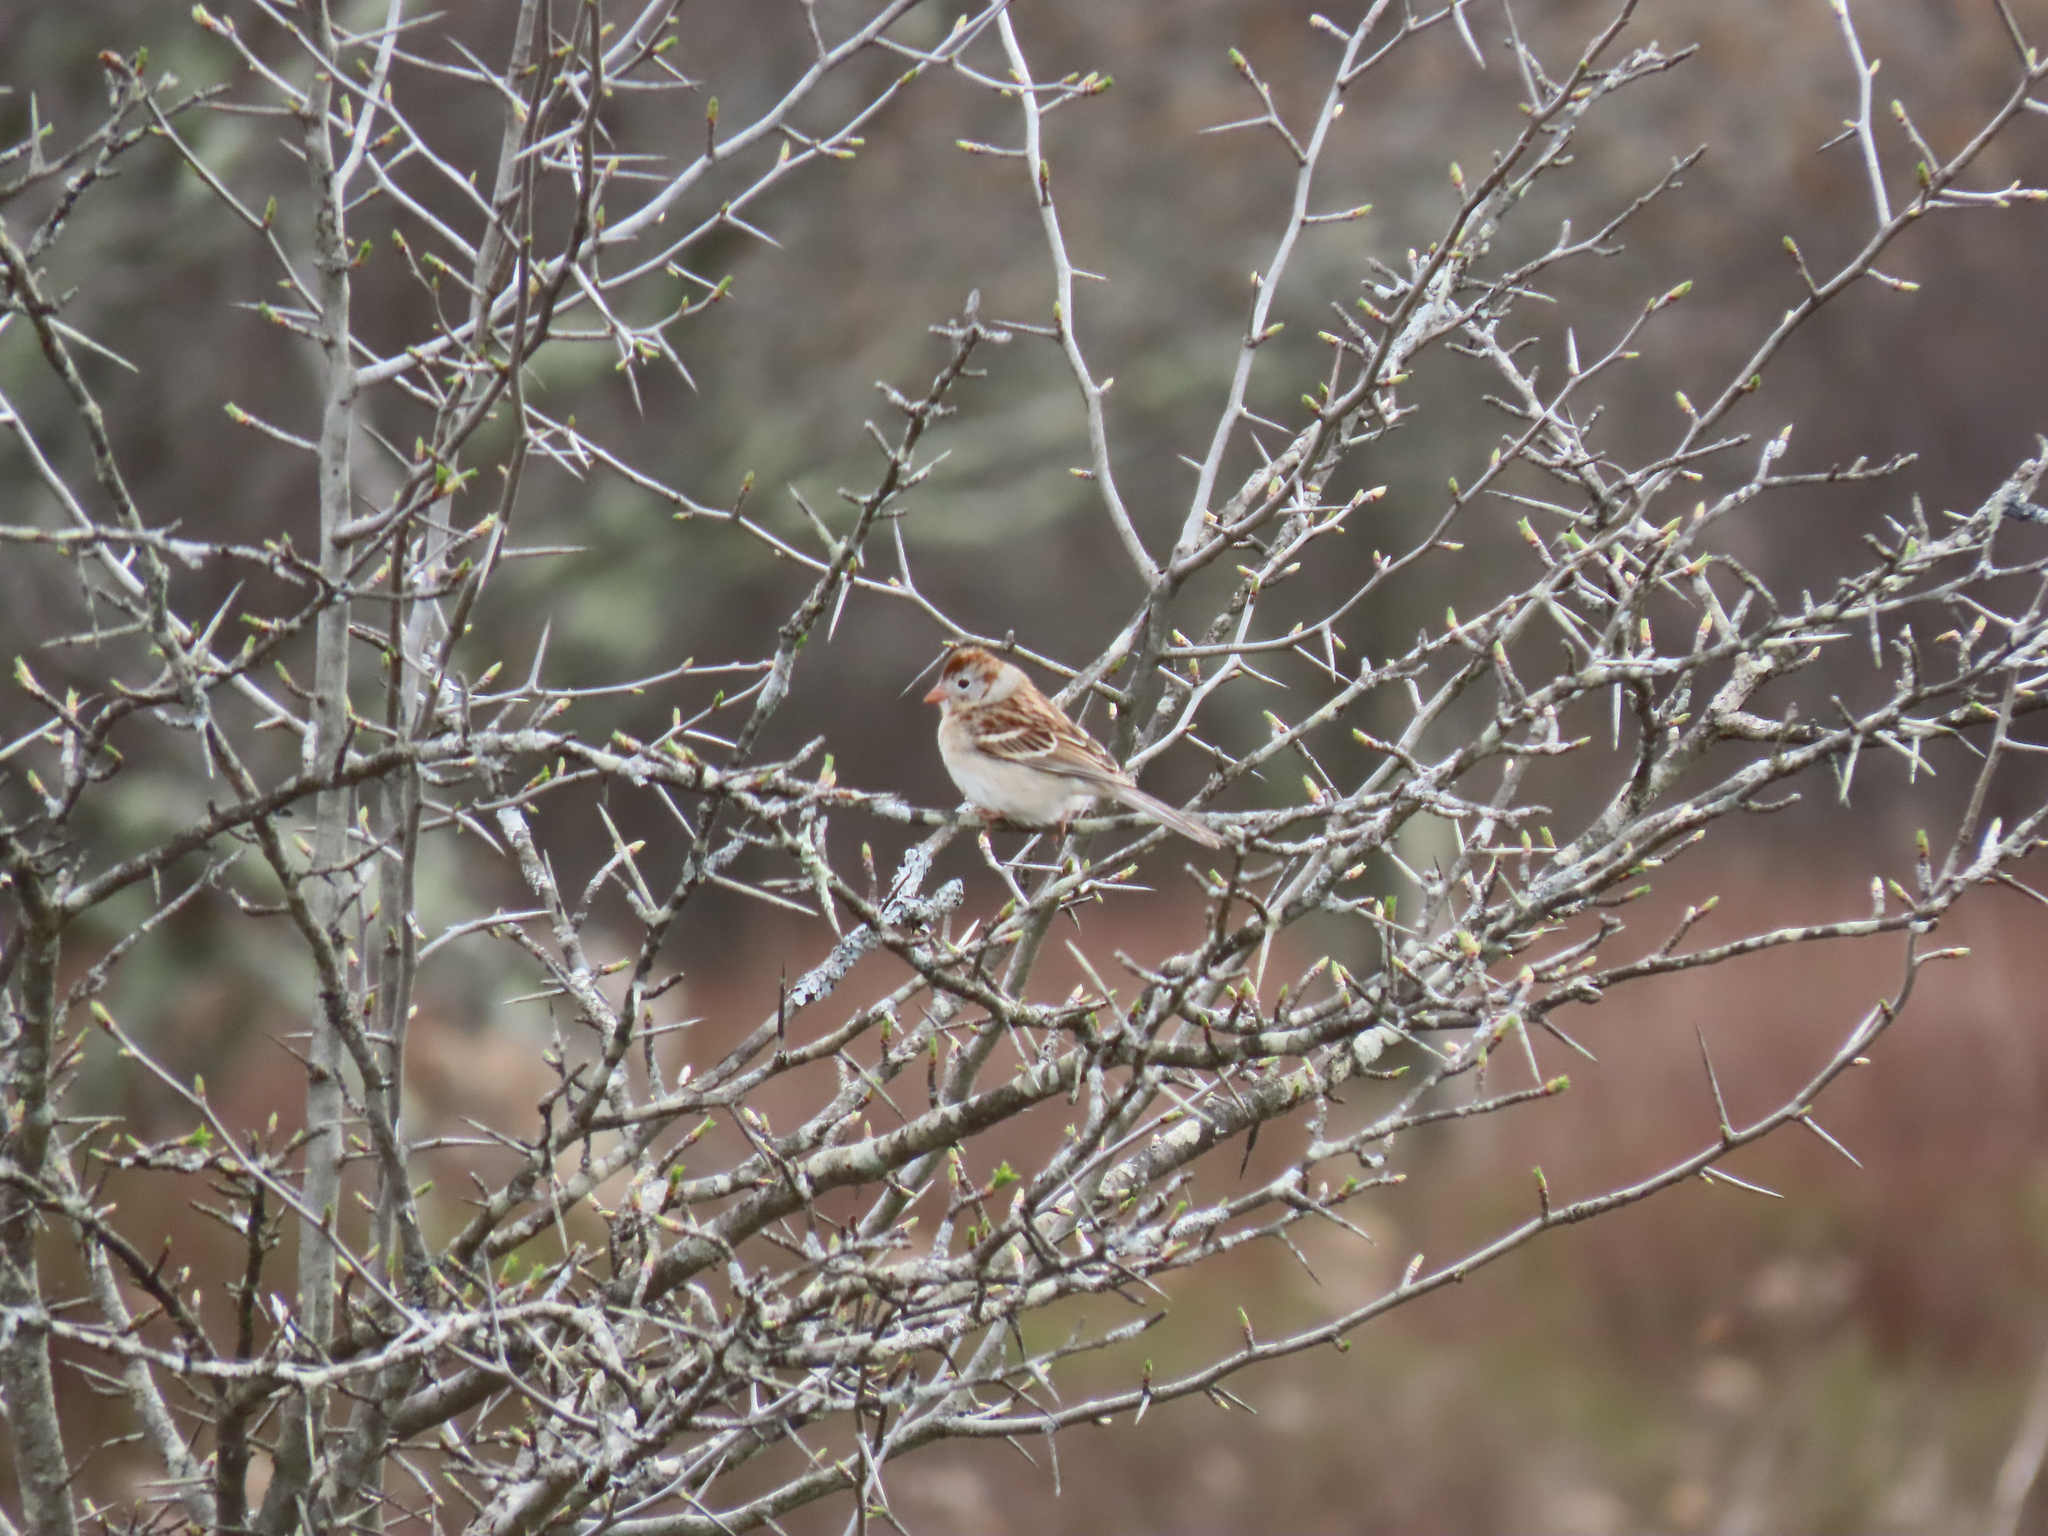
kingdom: Animalia
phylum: Chordata
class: Aves
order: Passeriformes
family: Passerellidae
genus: Spizella
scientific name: Spizella pusilla
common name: Field sparrow
